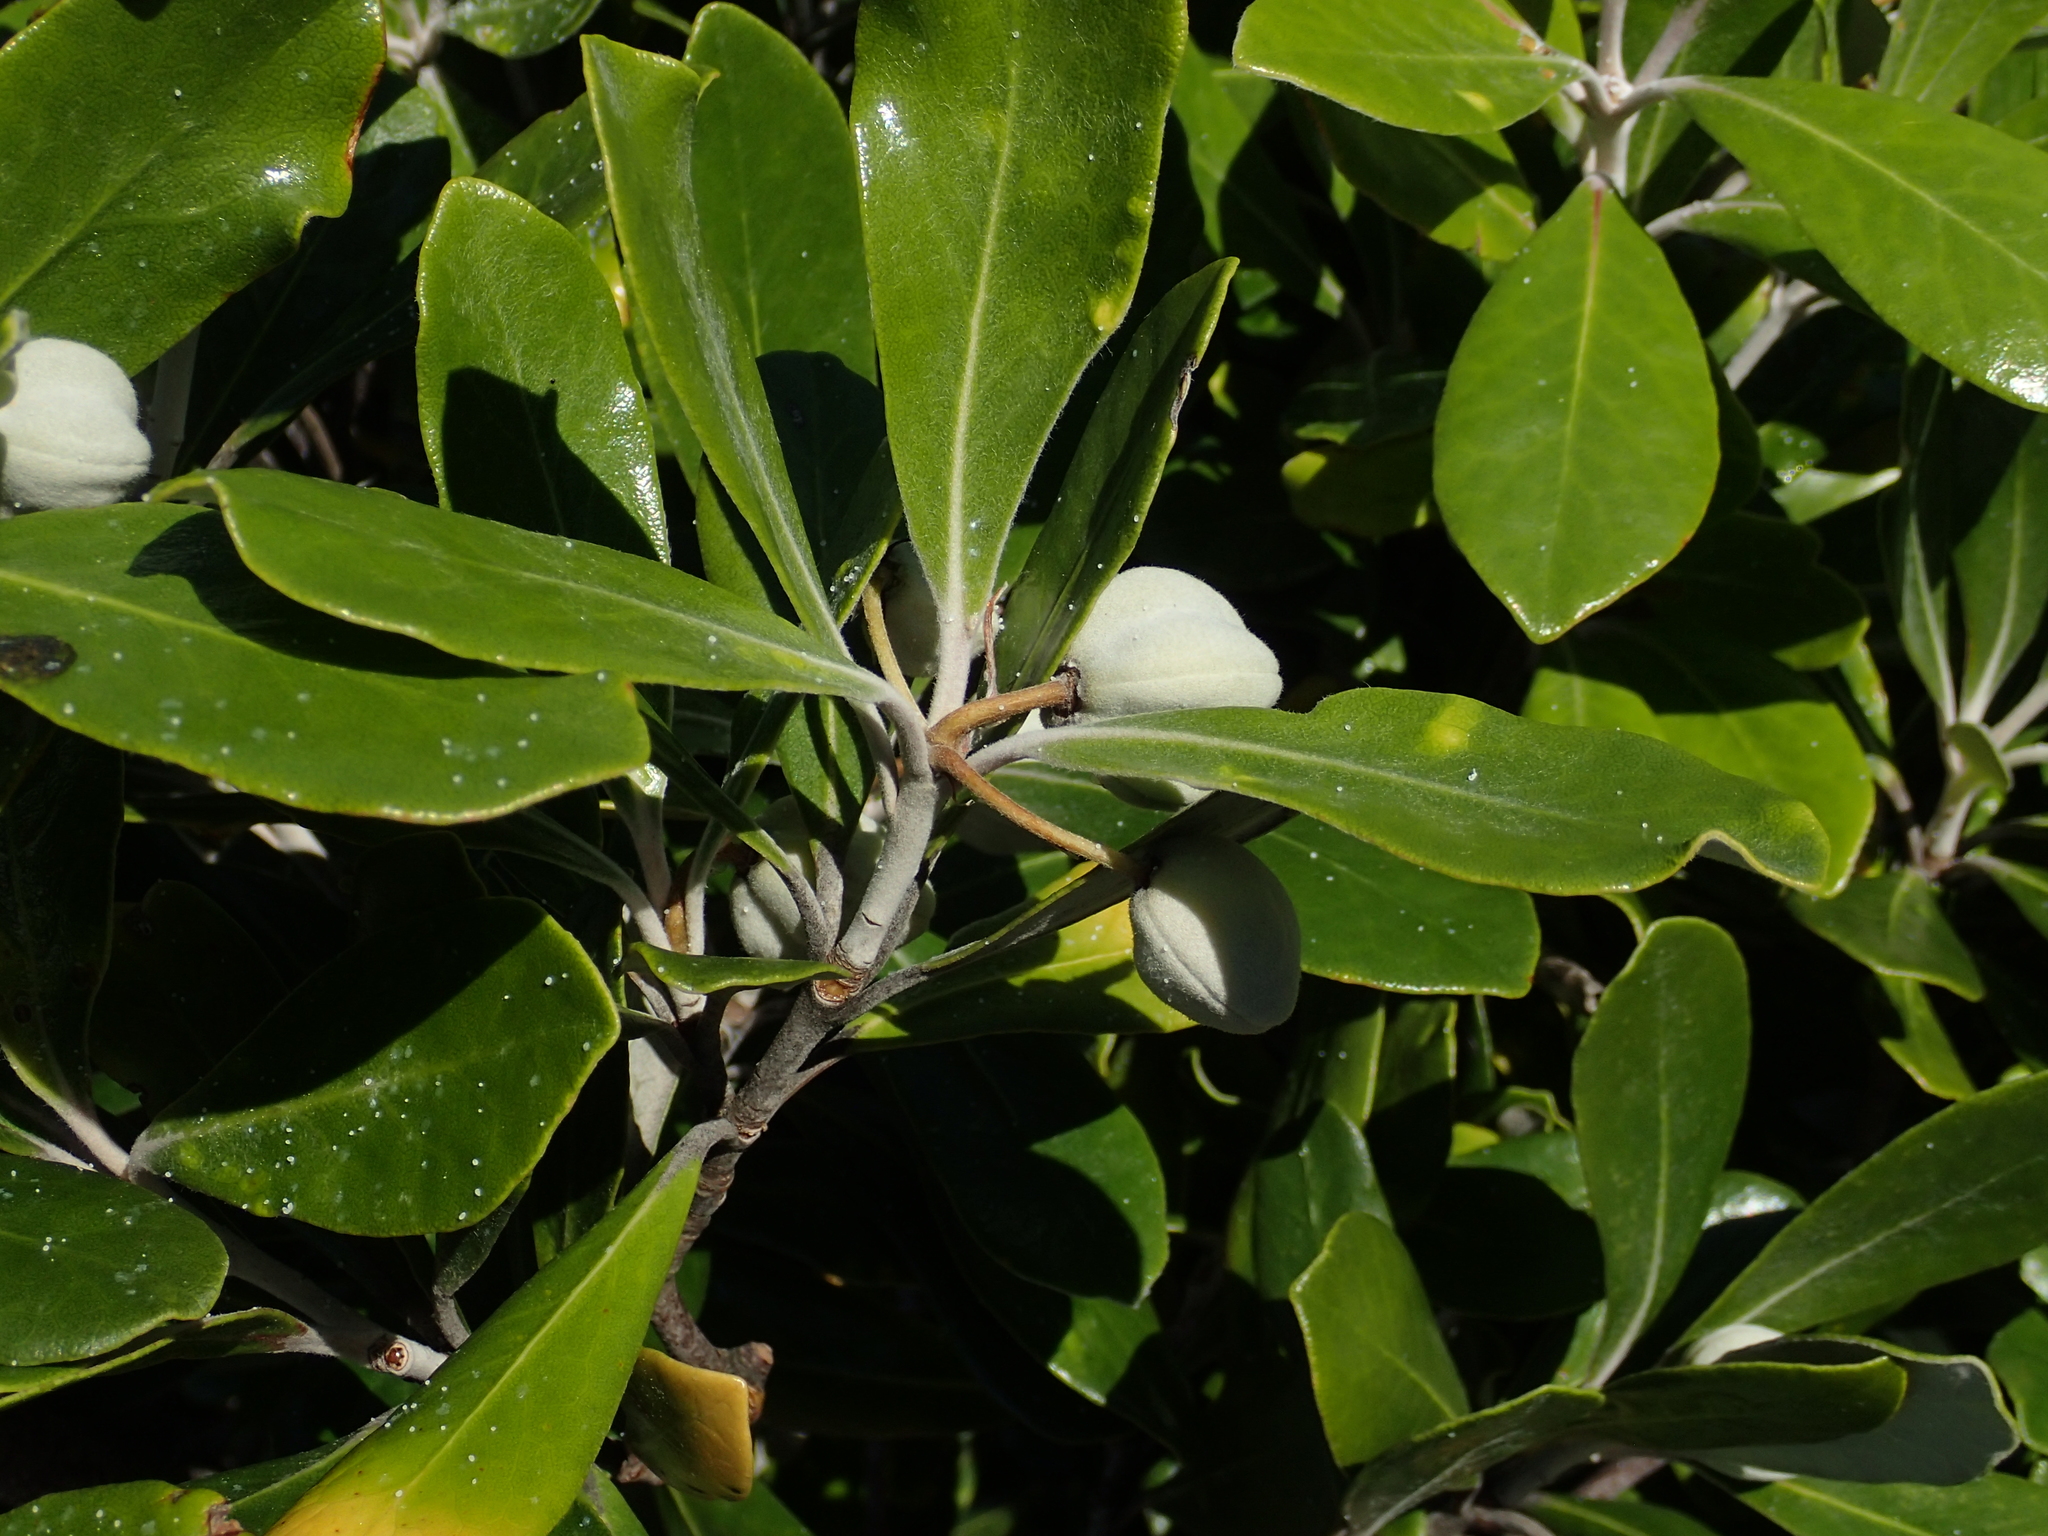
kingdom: Plantae
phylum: Tracheophyta
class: Magnoliopsida
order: Apiales
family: Pittosporaceae
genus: Pittosporum
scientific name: Pittosporum crassifolium
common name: Karo
